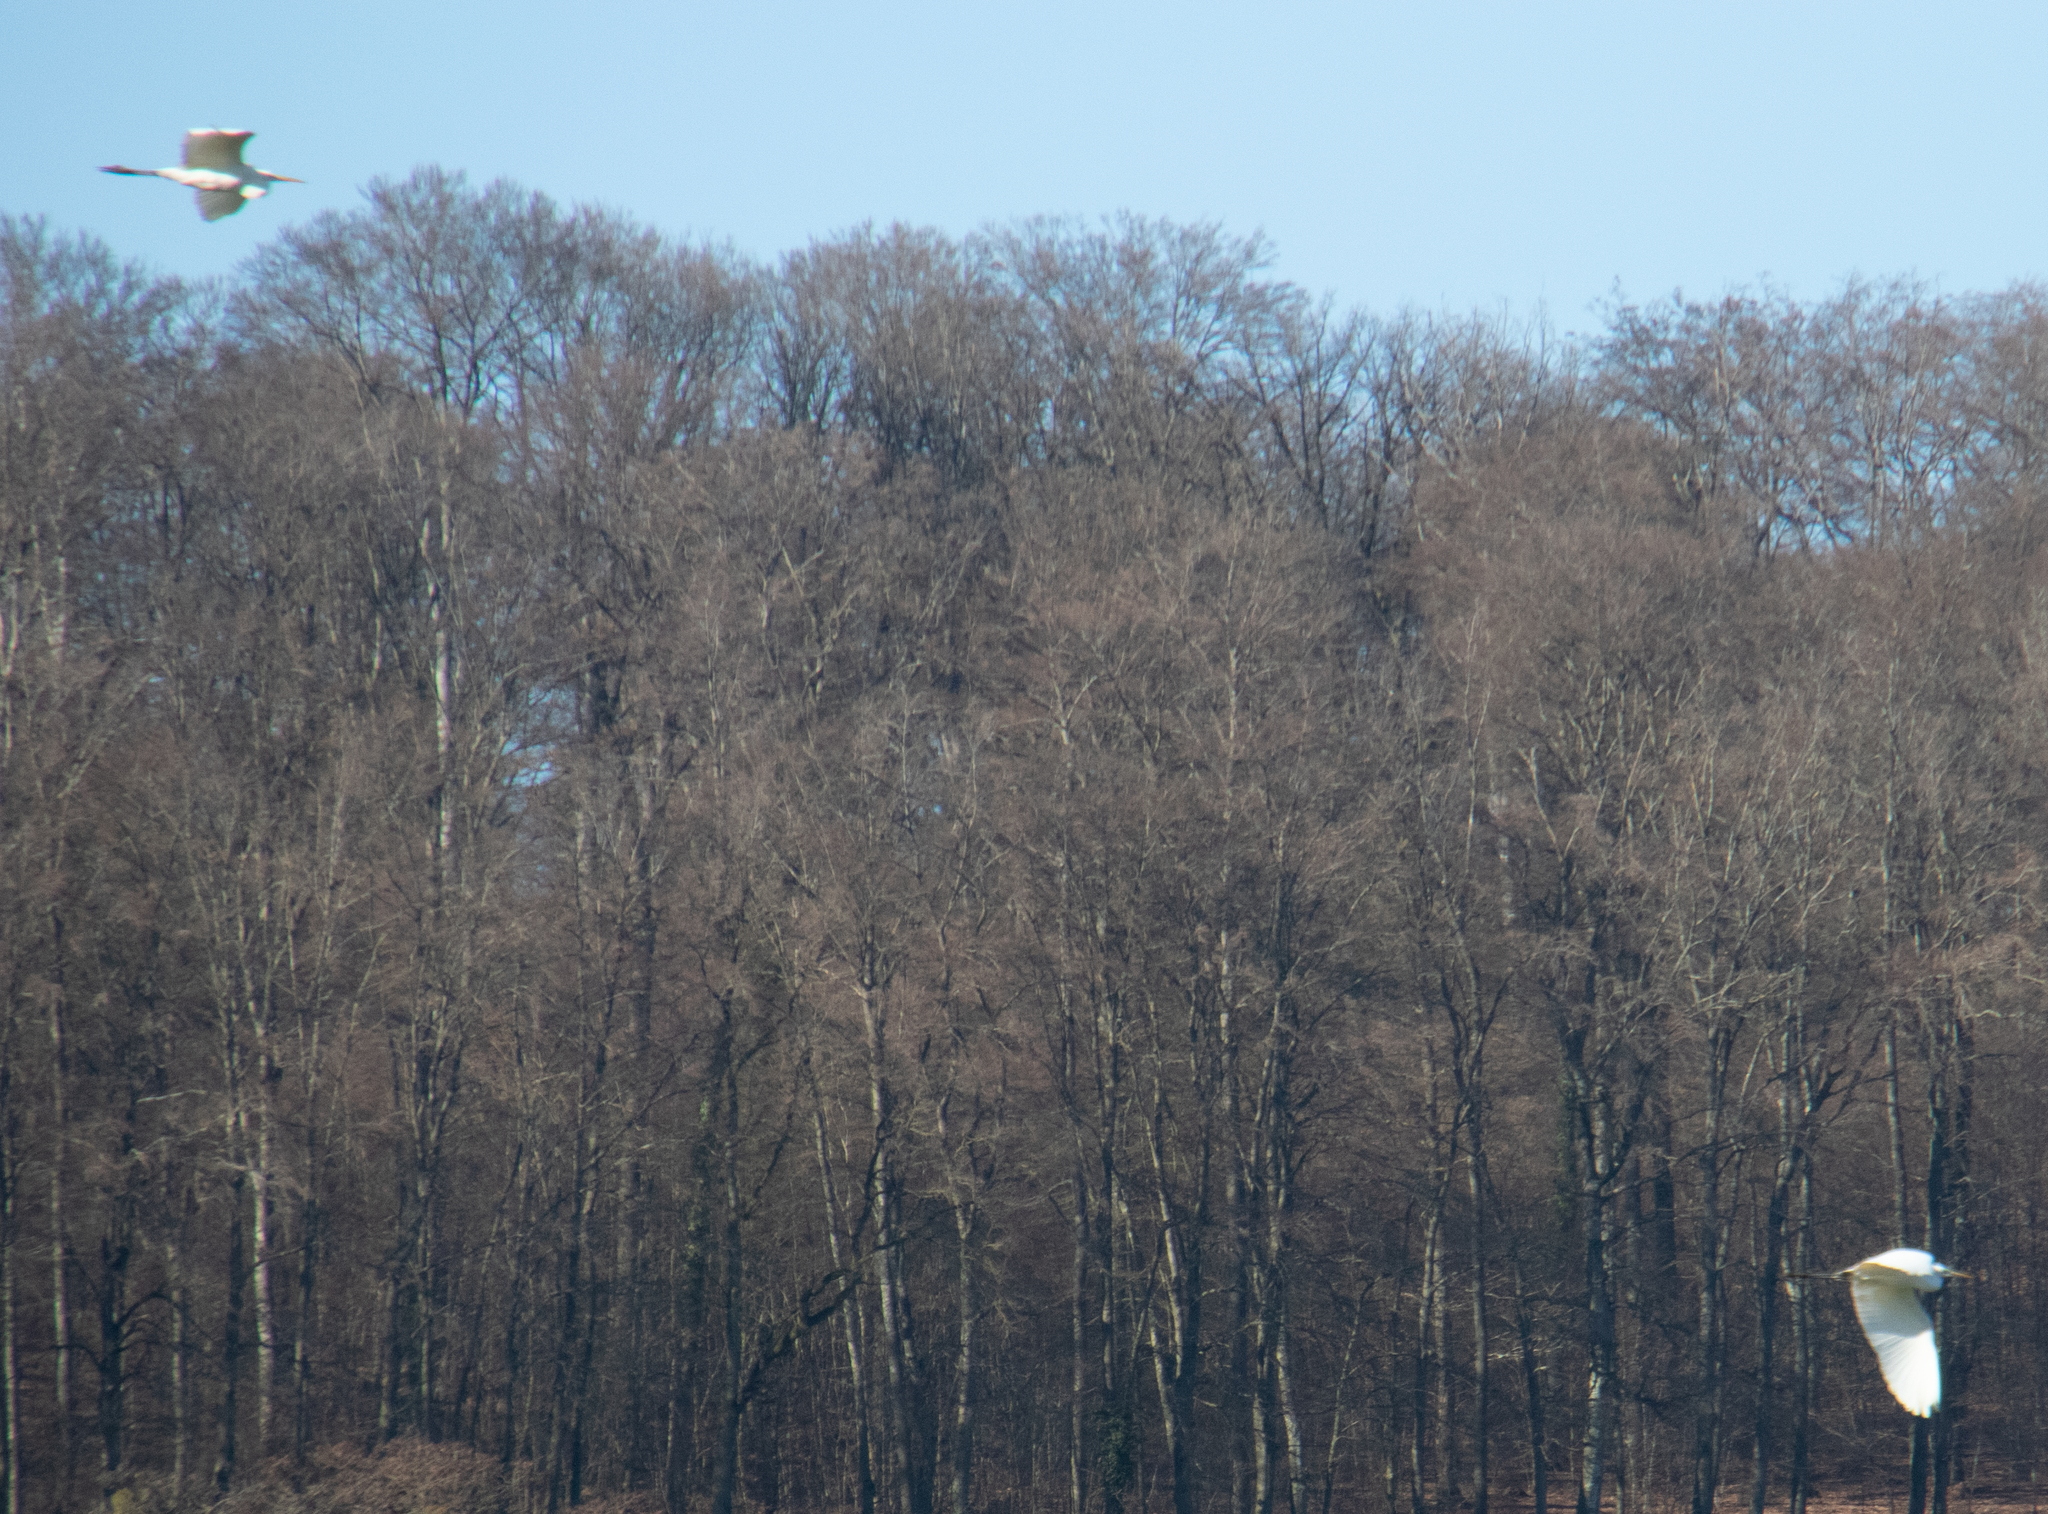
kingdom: Animalia
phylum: Chordata
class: Aves
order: Pelecaniformes
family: Ardeidae
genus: Ardea
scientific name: Ardea alba
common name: Great egret
